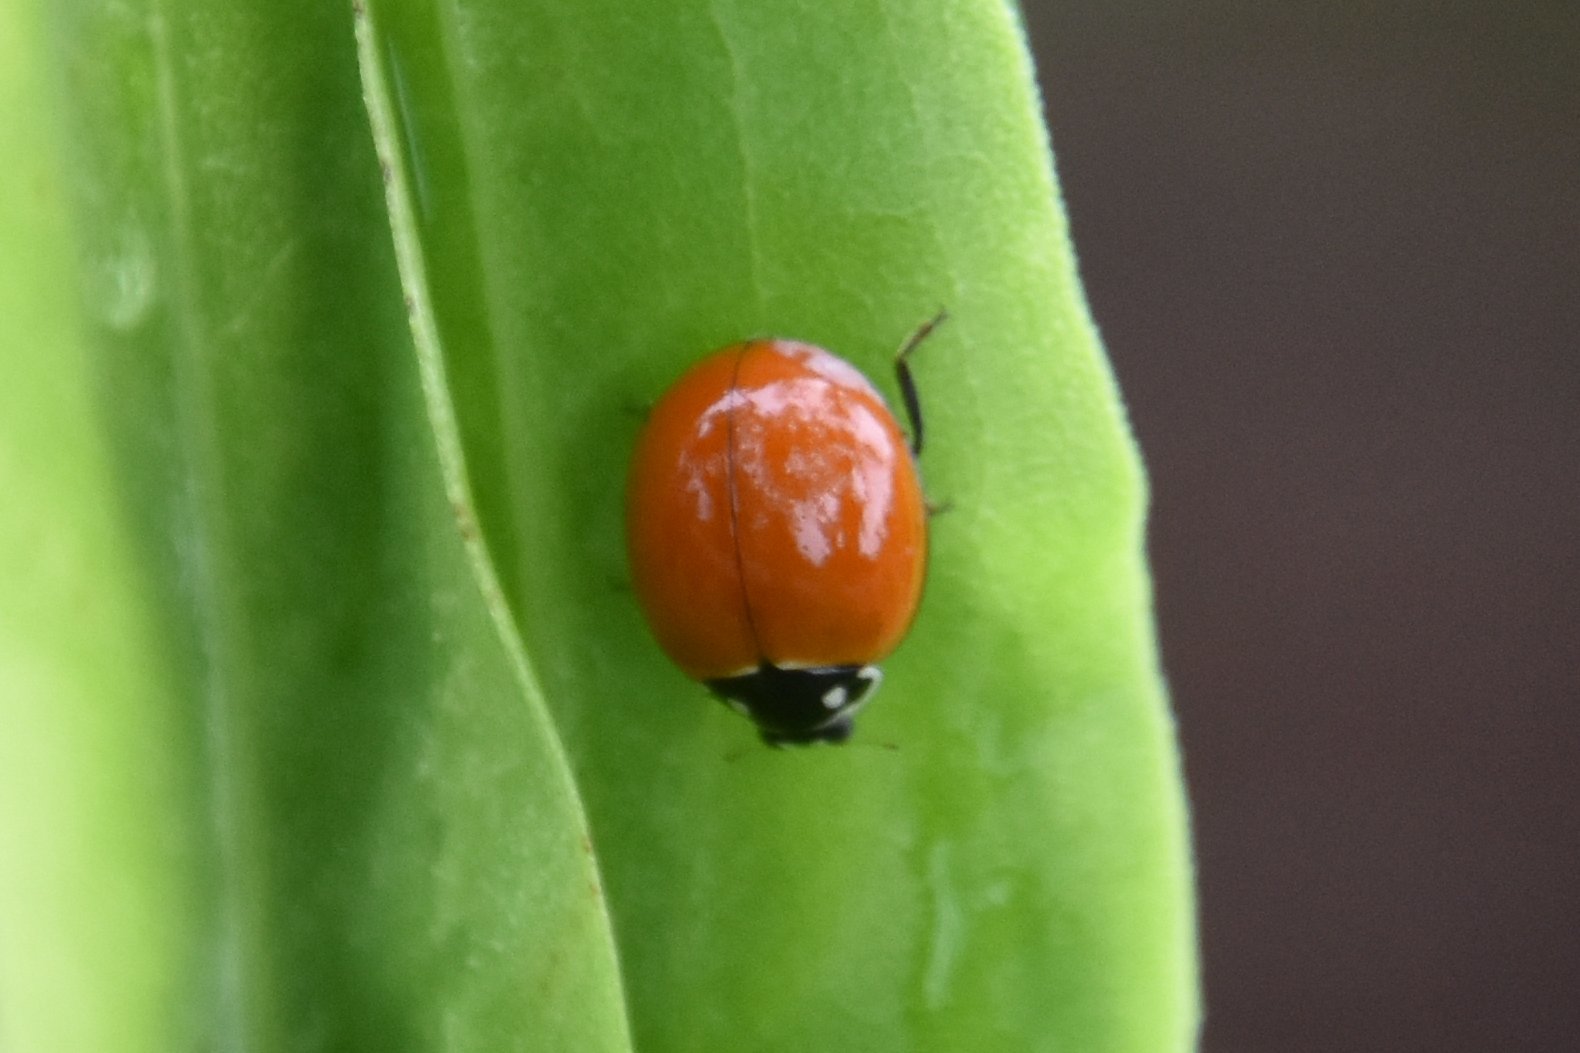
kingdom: Animalia
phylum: Arthropoda
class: Insecta
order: Coleoptera
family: Coccinellidae
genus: Cycloneda
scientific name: Cycloneda sanguinea
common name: Ladybird beetle
